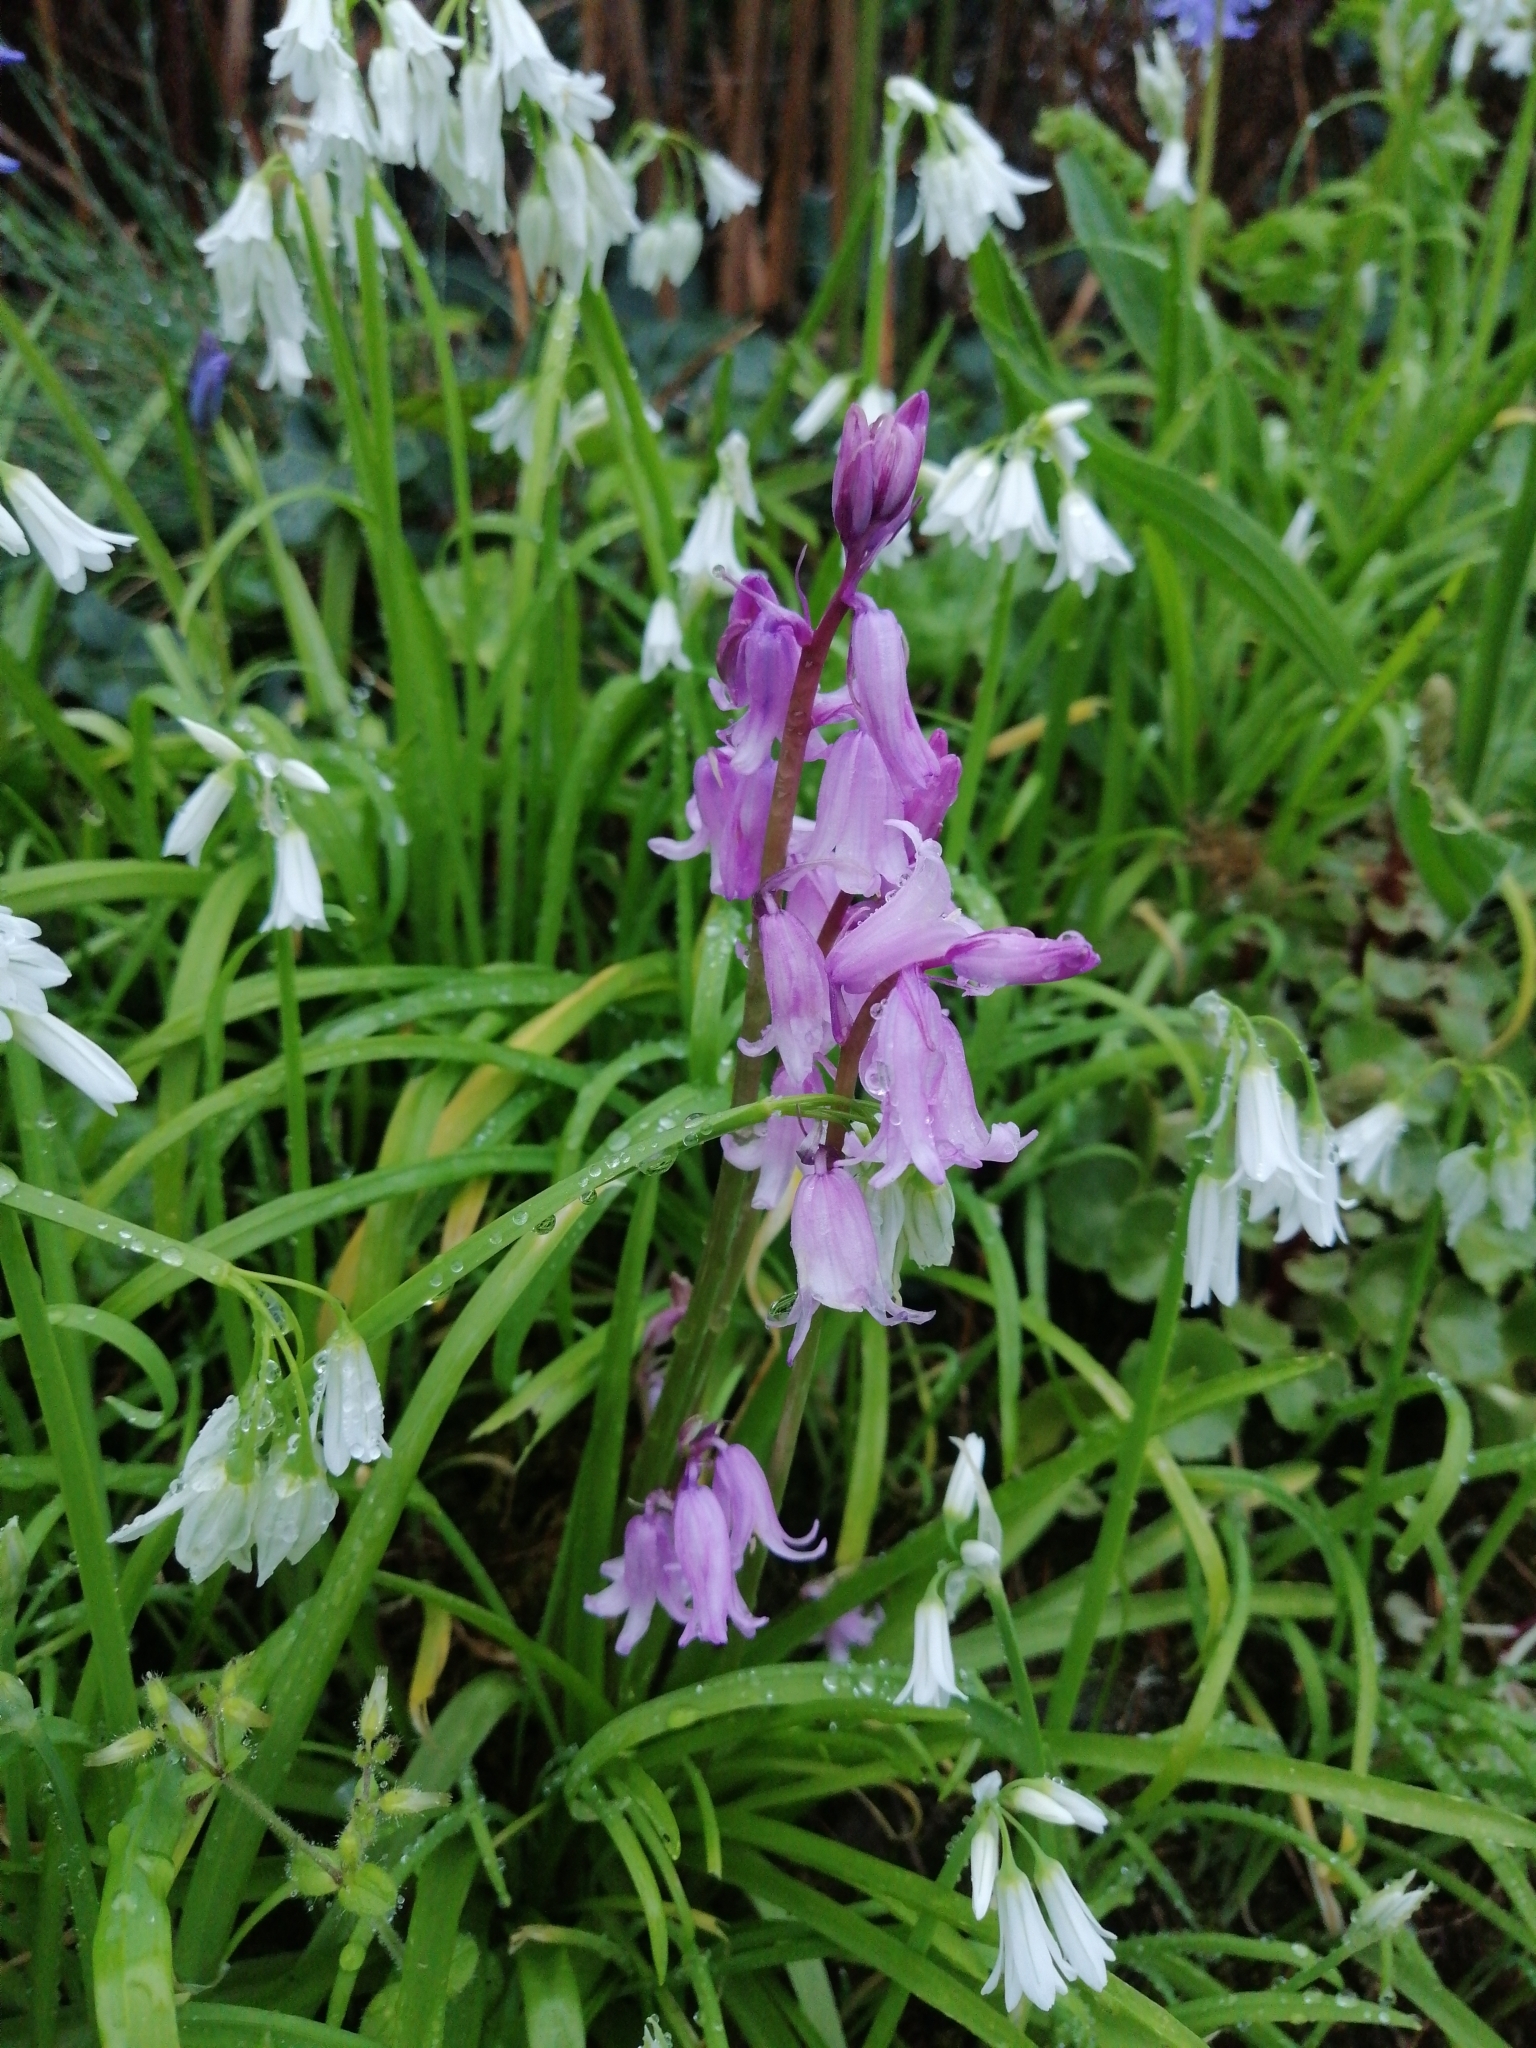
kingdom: Plantae
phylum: Tracheophyta
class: Liliopsida
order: Asparagales
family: Asparagaceae
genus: Hyacinthoides
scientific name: Hyacinthoides non-scripta
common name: Bluebell
